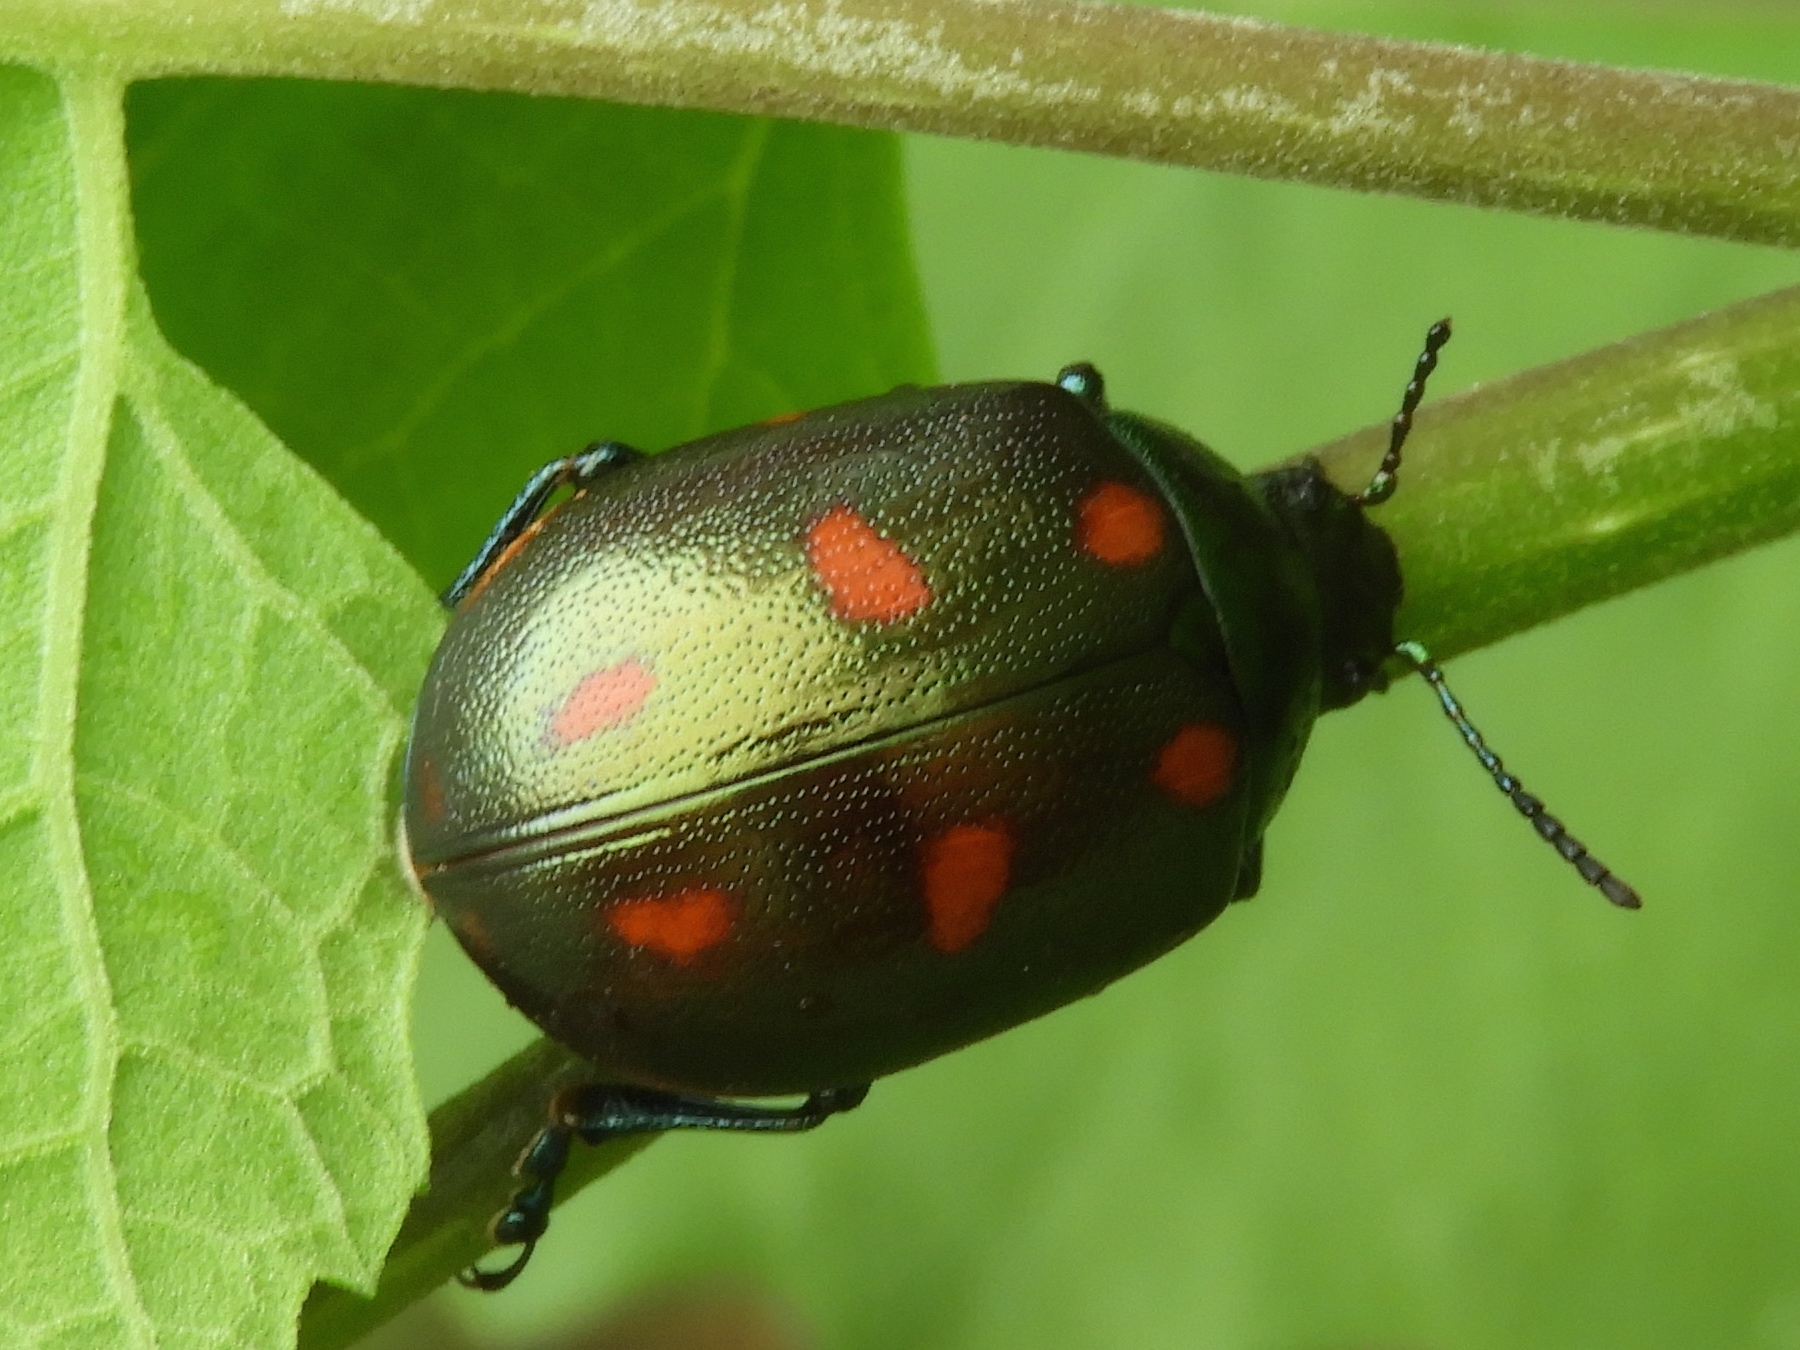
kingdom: Animalia
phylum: Arthropoda
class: Insecta
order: Coleoptera
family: Chrysomelidae
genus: Leptinotarsa
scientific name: Leptinotarsa behrensi
